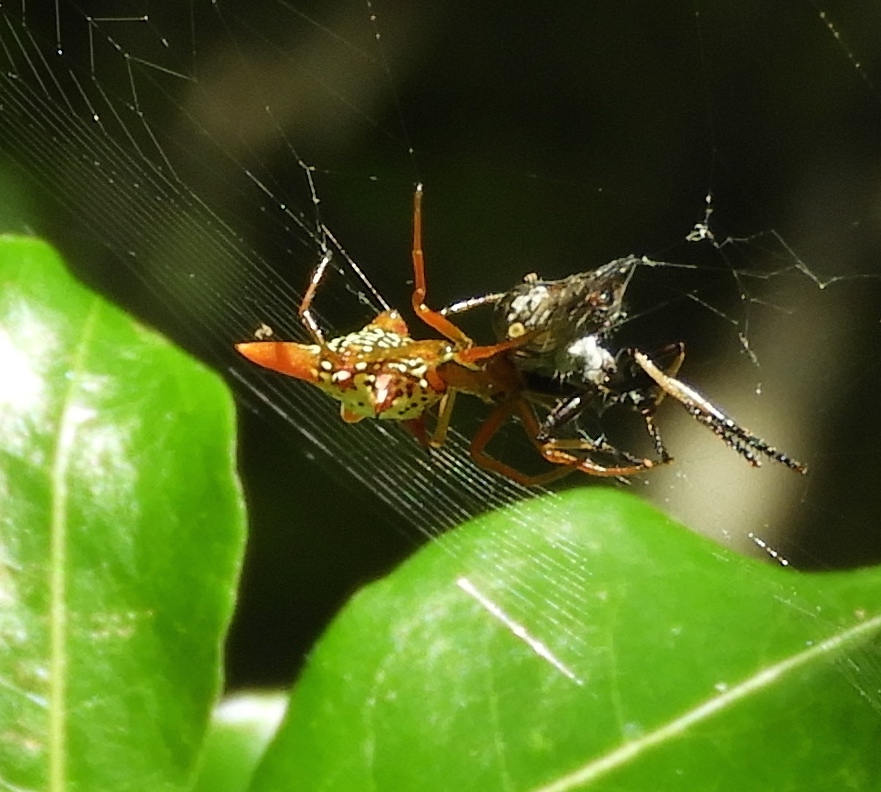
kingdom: Animalia
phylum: Arthropoda
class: Arachnida
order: Araneae
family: Araneidae
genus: Micrathena
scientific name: Micrathena sagittata
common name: Orb weavers
